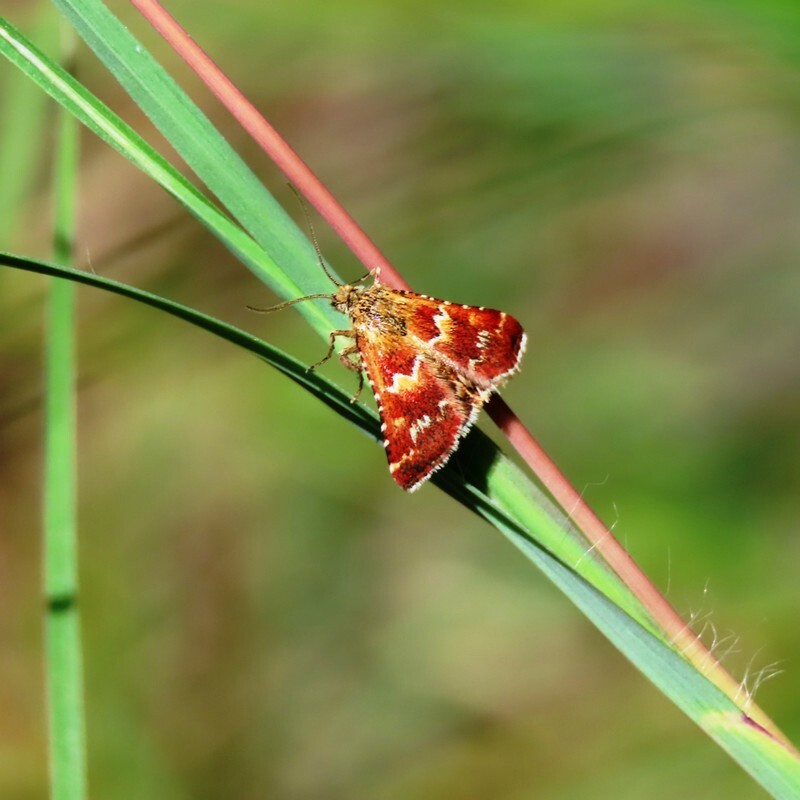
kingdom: Animalia
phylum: Arthropoda
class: Insecta
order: Lepidoptera
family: Pyralidae
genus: Oenogenes
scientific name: Oenogenes fugalis
